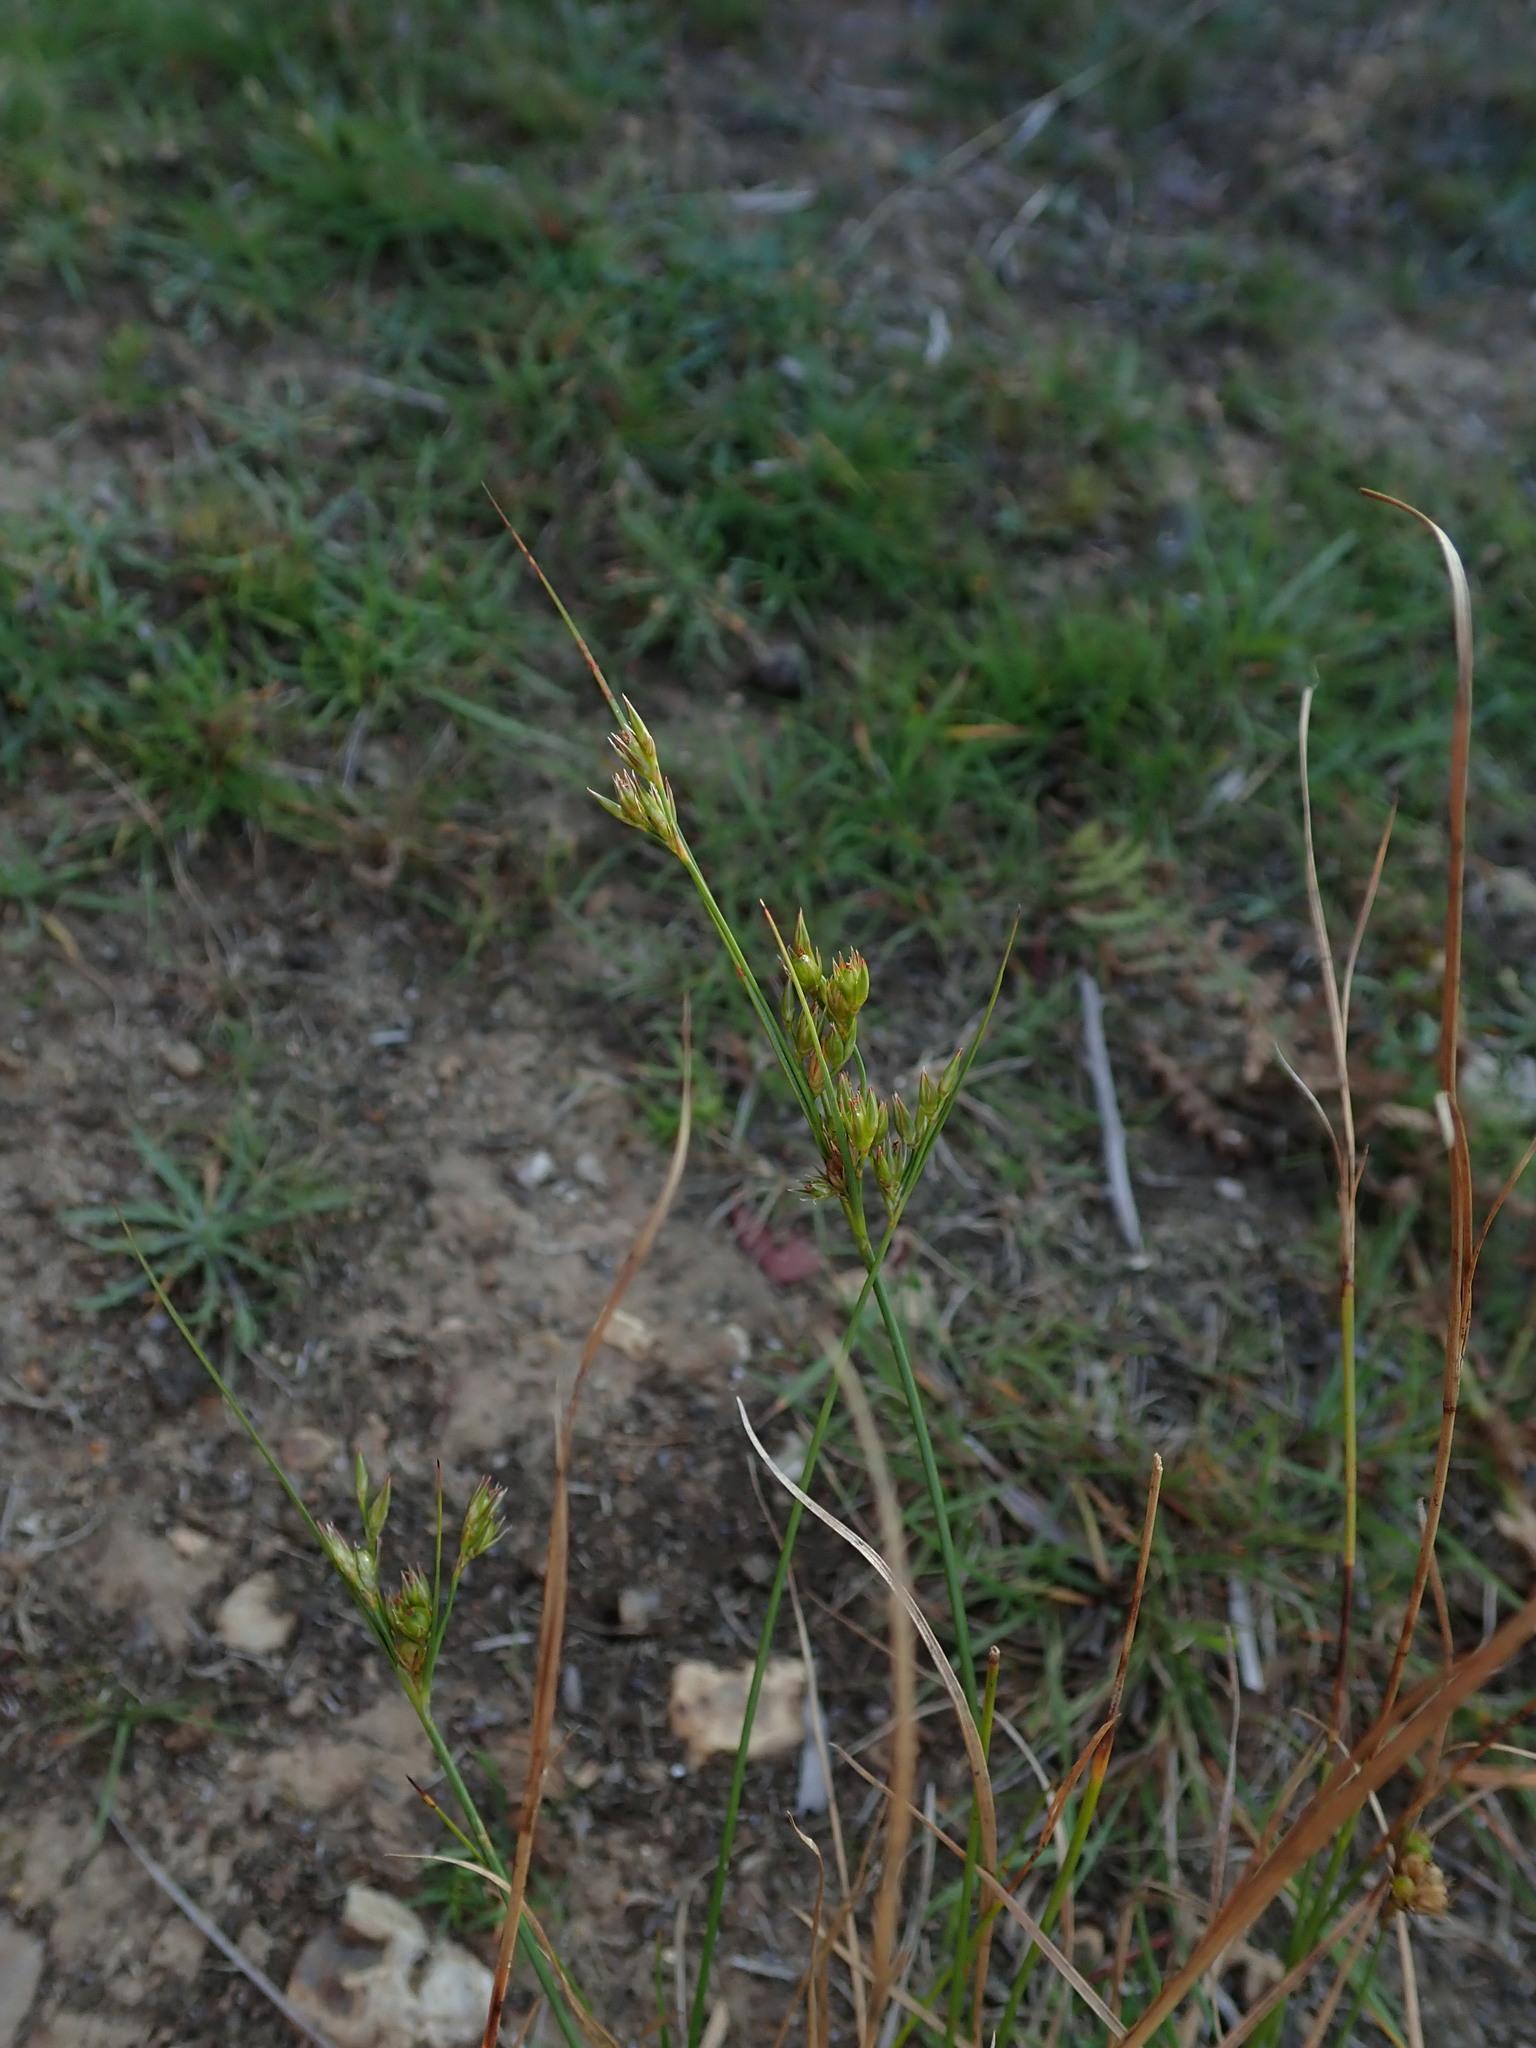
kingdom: Plantae
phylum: Tracheophyta
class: Liliopsida
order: Poales
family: Juncaceae
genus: Juncus
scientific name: Juncus tenuis
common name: Slender rush
